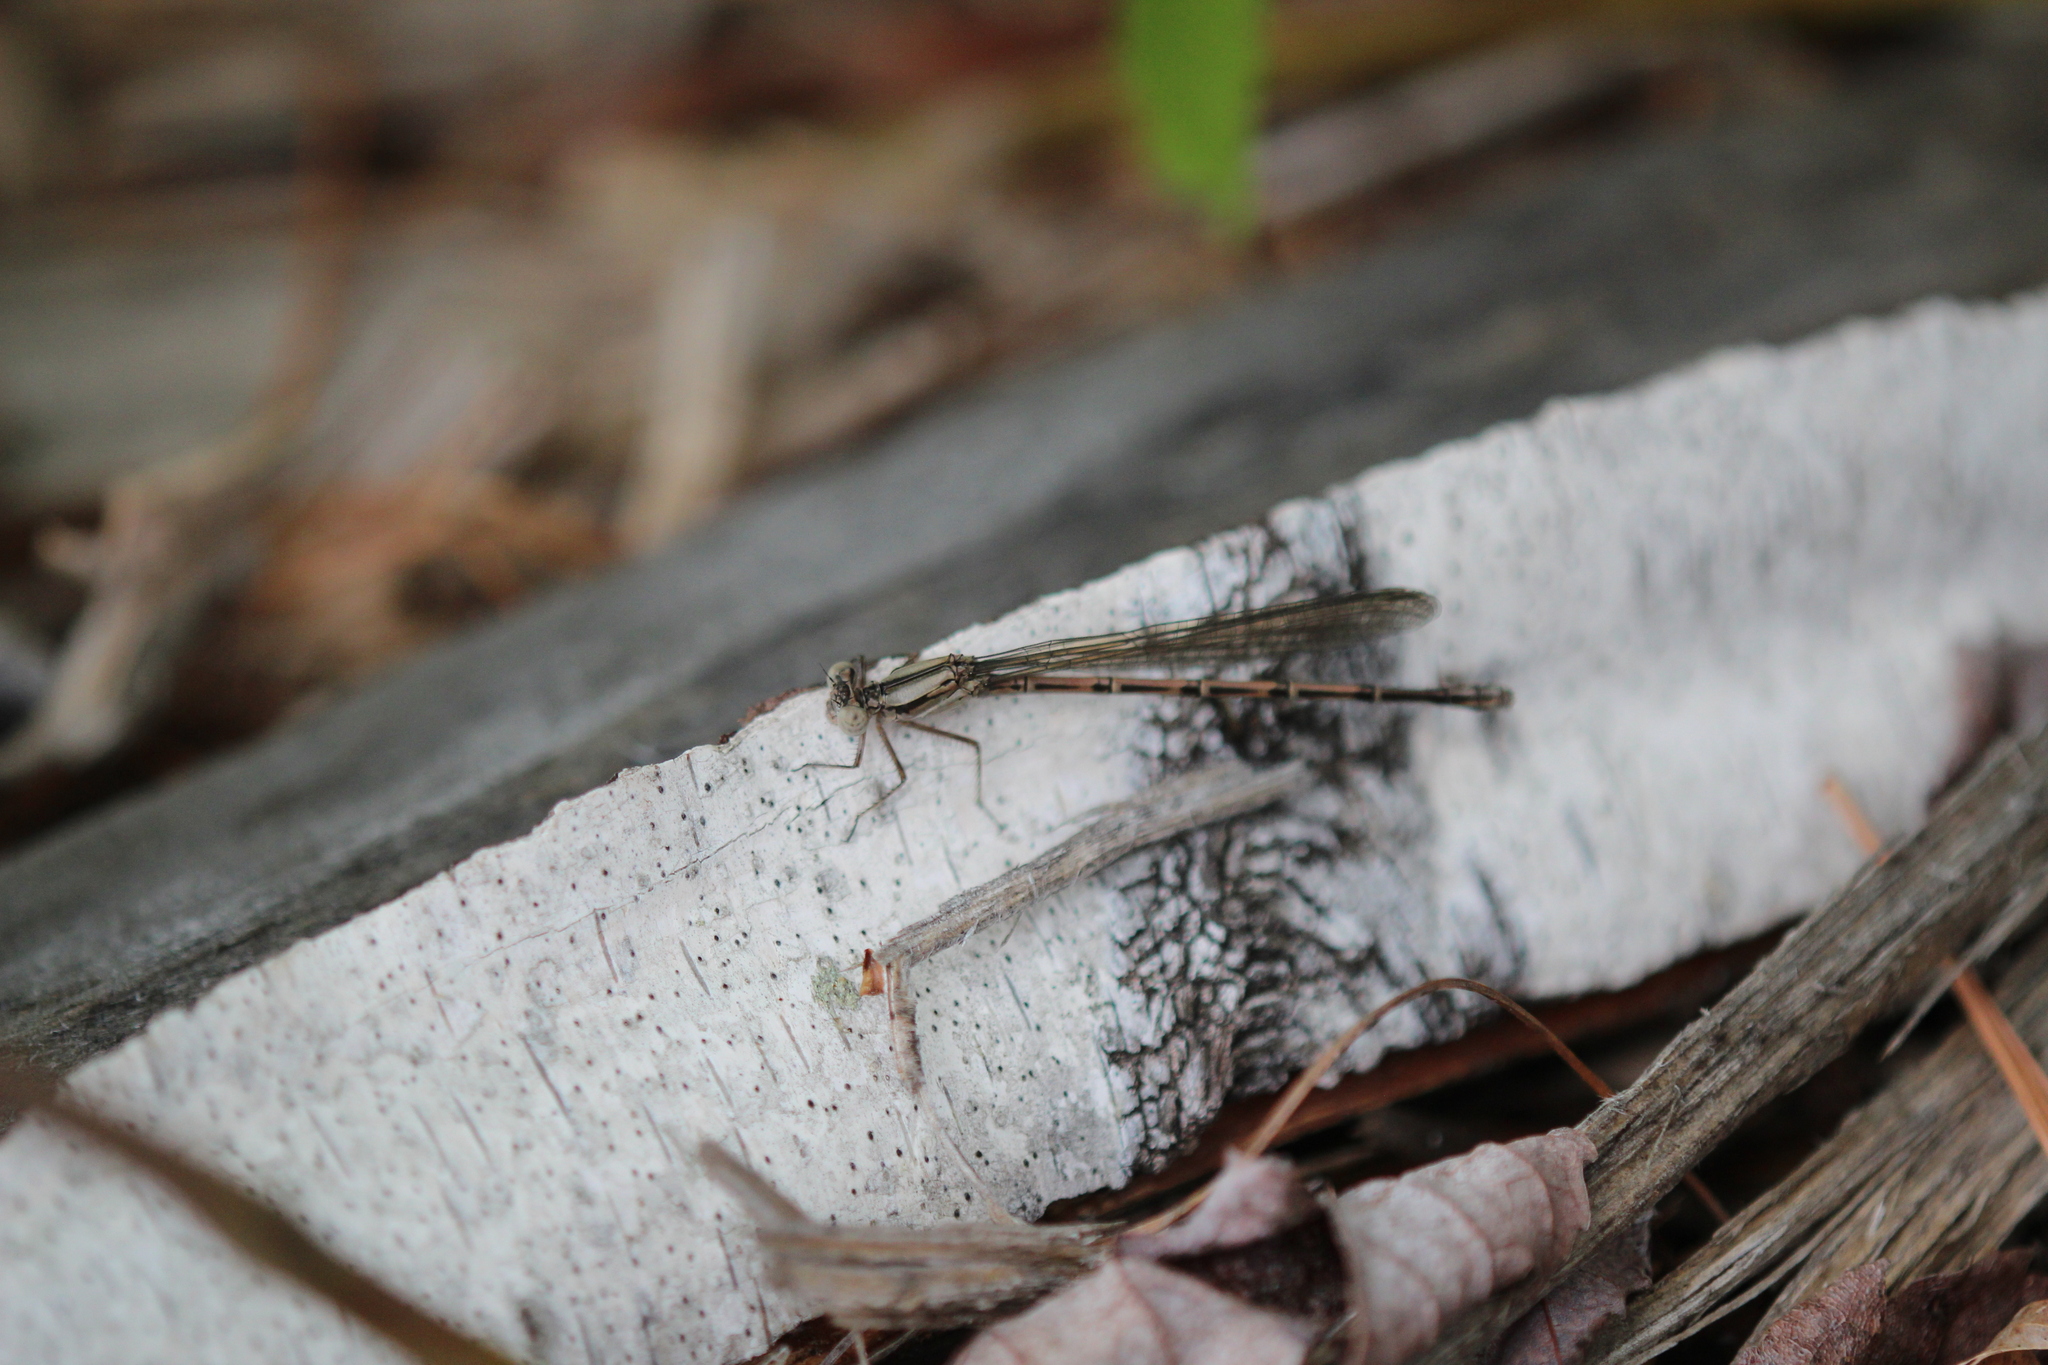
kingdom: Animalia
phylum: Arthropoda
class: Insecta
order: Odonata
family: Coenagrionidae
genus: Argia
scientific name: Argia fumipennis
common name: Variable dancer
